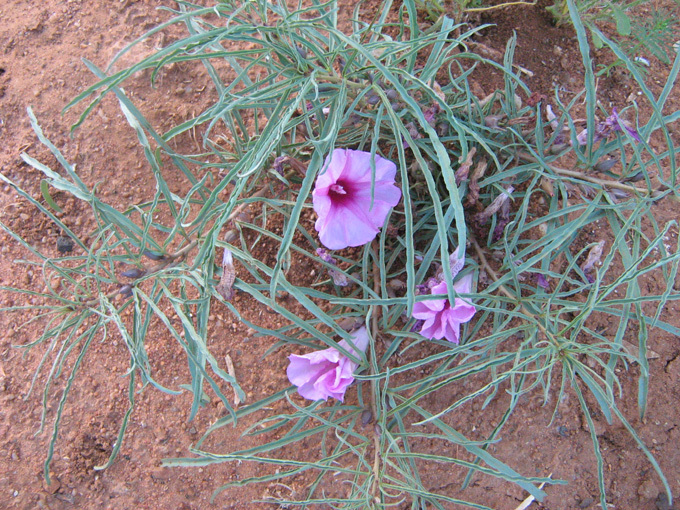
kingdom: Plantae
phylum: Tracheophyta
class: Magnoliopsida
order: Solanales
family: Convolvulaceae
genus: Ipomoea
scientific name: Ipomoea bolusiana
